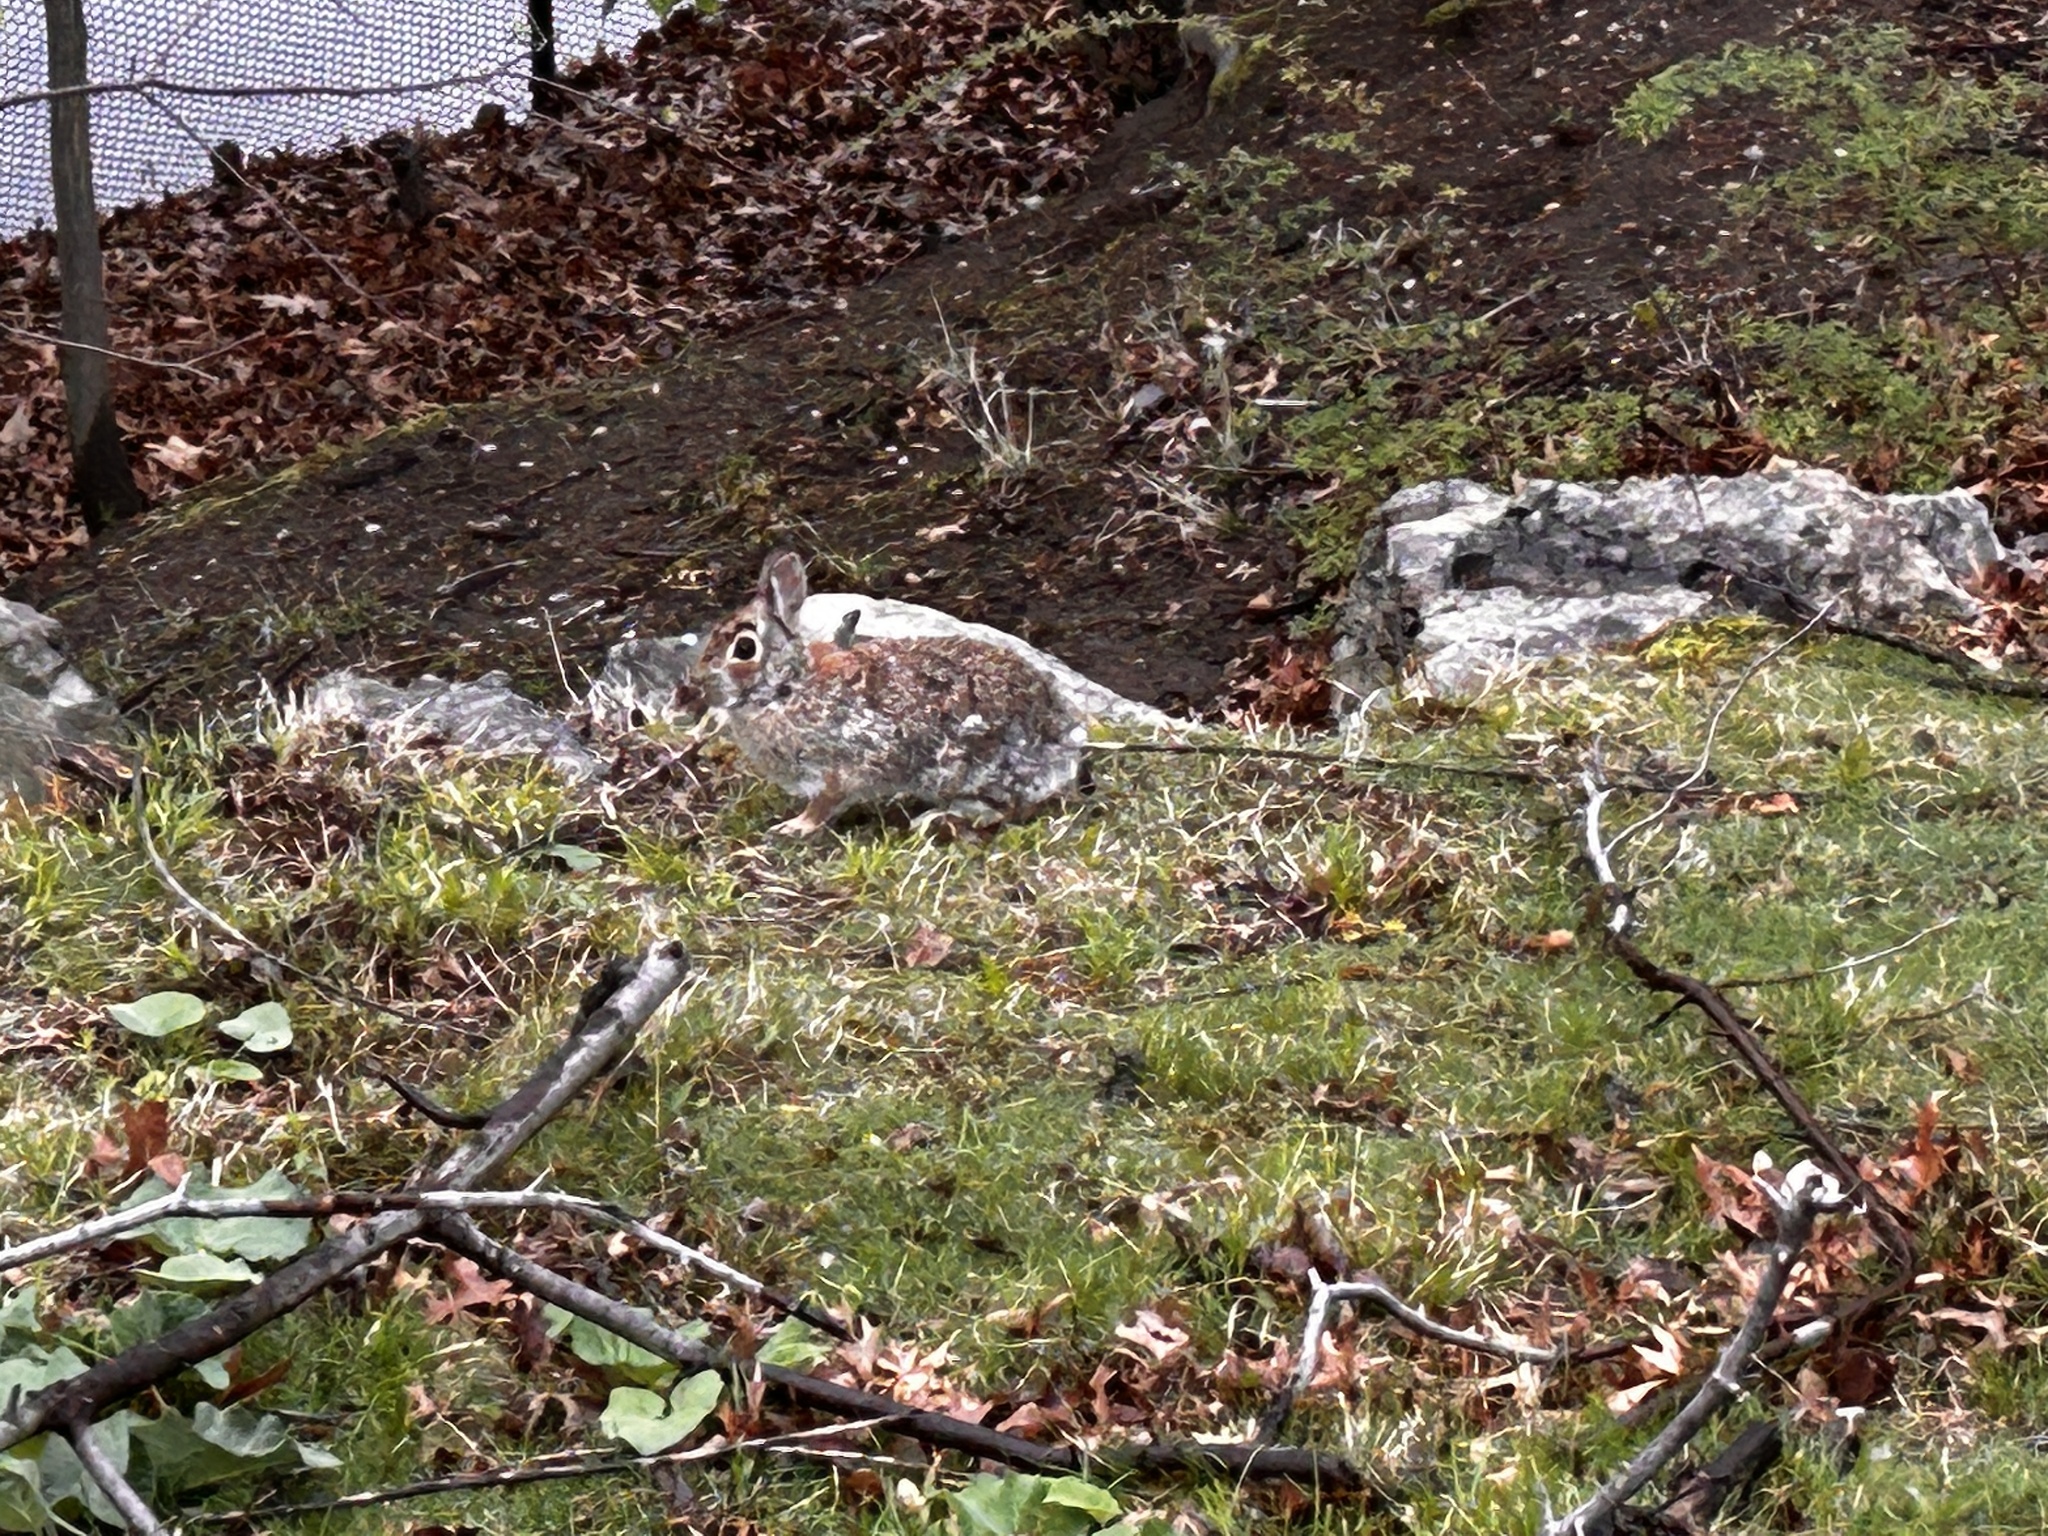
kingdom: Animalia
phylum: Chordata
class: Mammalia
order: Lagomorpha
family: Leporidae
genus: Sylvilagus
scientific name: Sylvilagus floridanus
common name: Eastern cottontail
